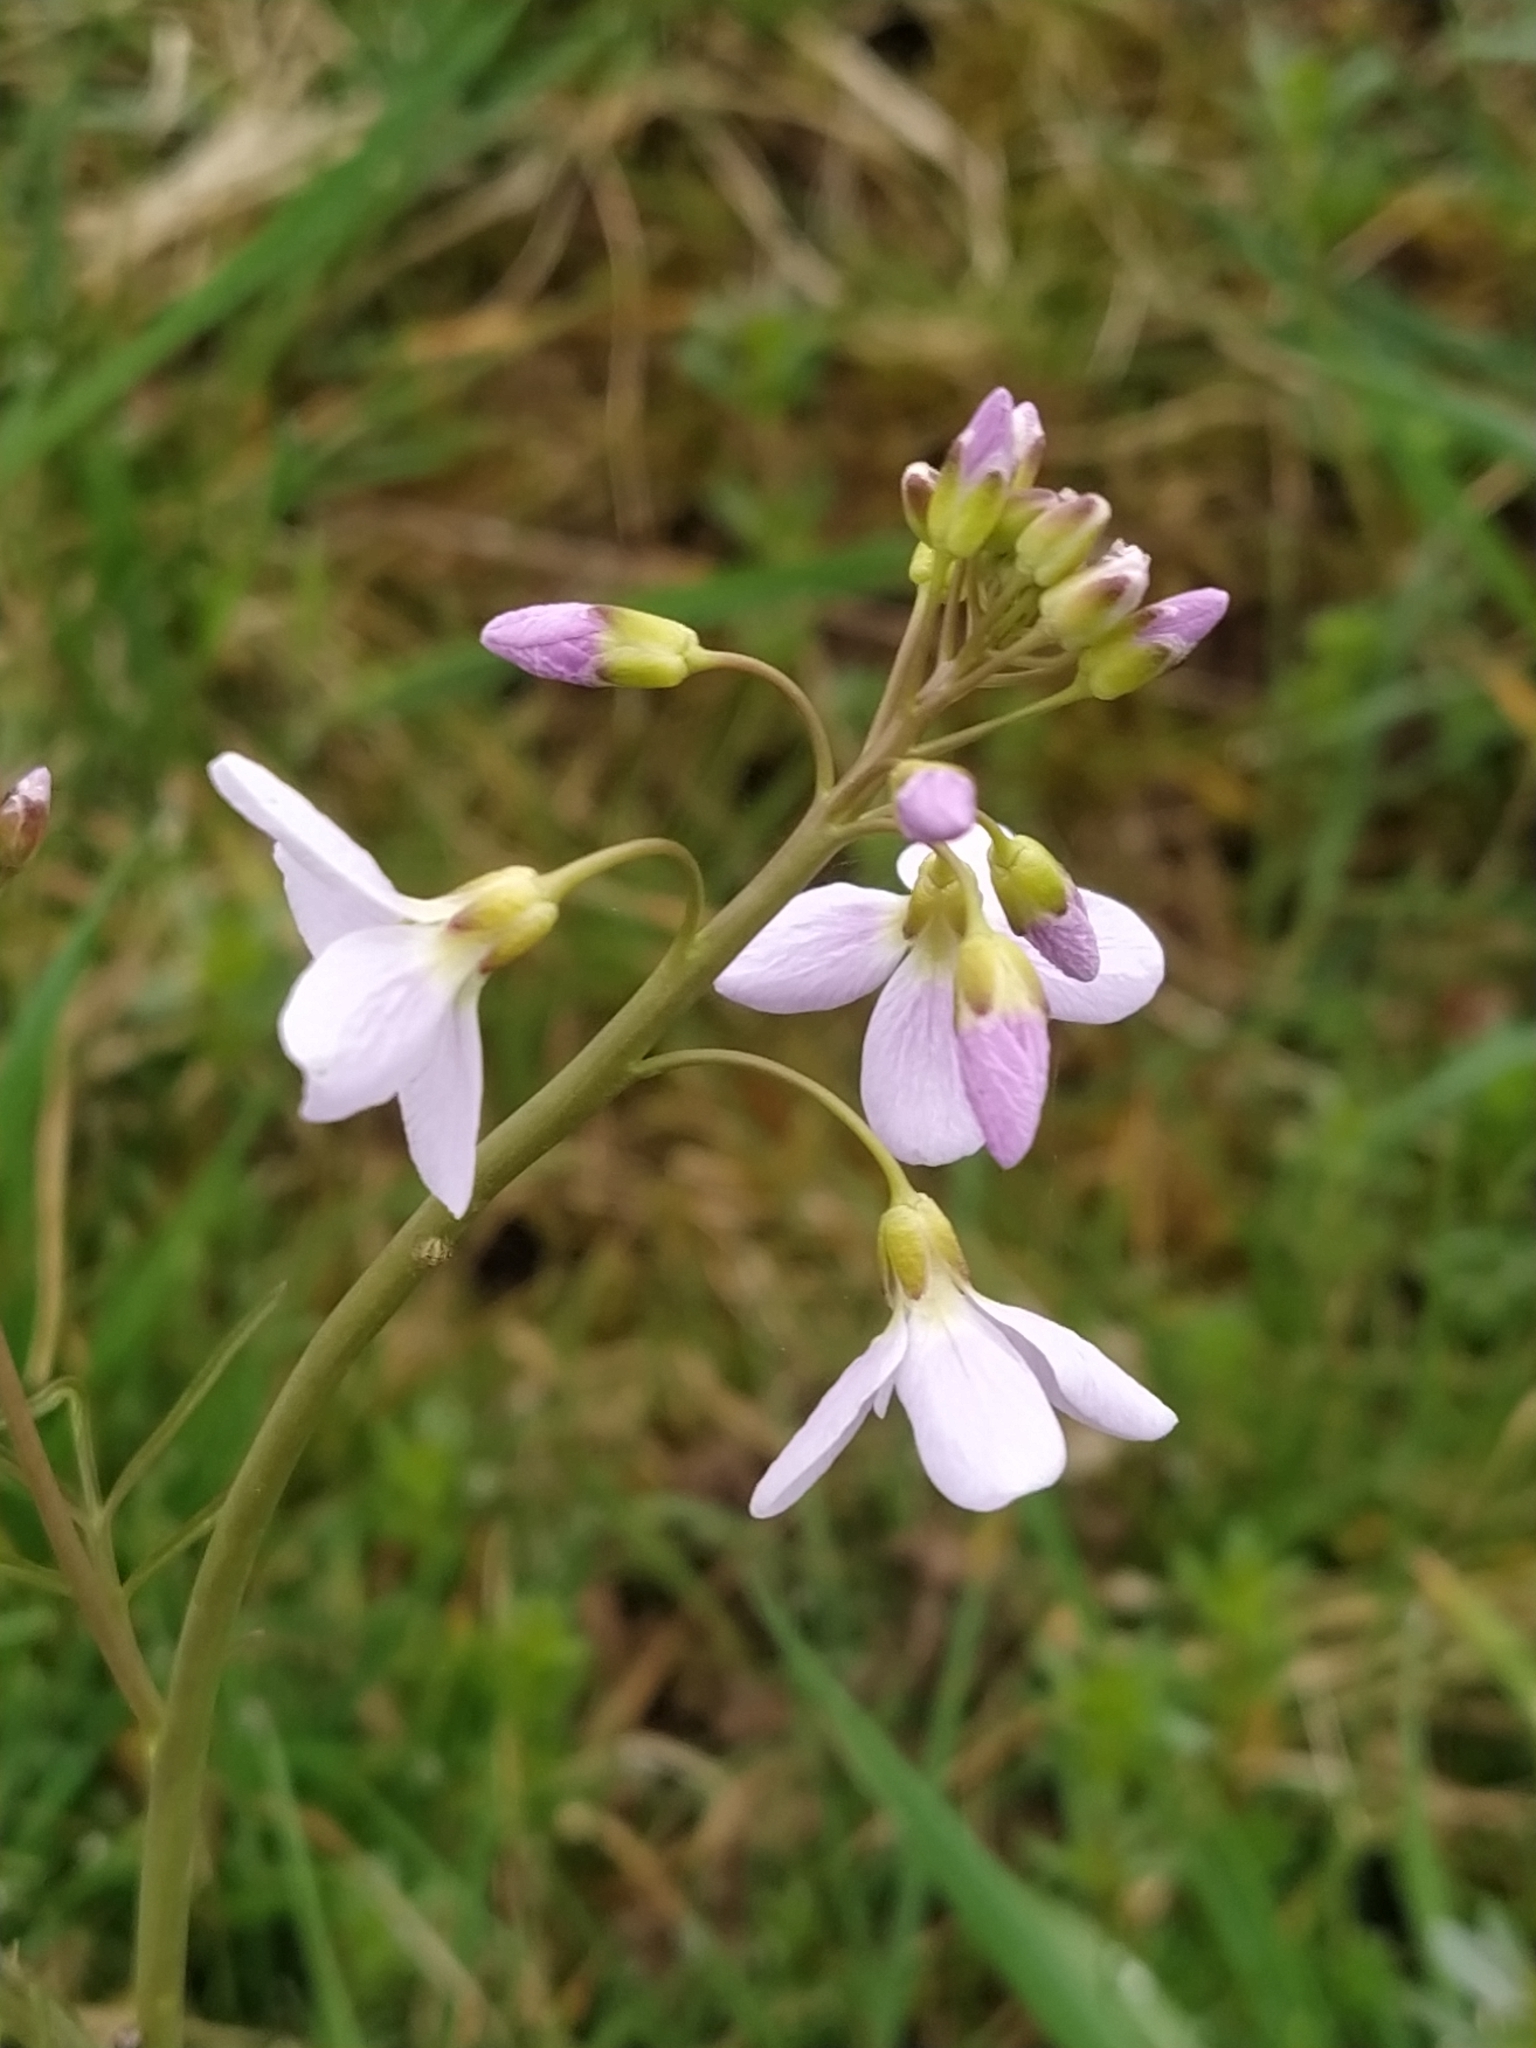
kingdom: Plantae
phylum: Tracheophyta
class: Magnoliopsida
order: Brassicales
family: Brassicaceae
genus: Cardamine
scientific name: Cardamine pratensis
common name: Cuckoo flower
